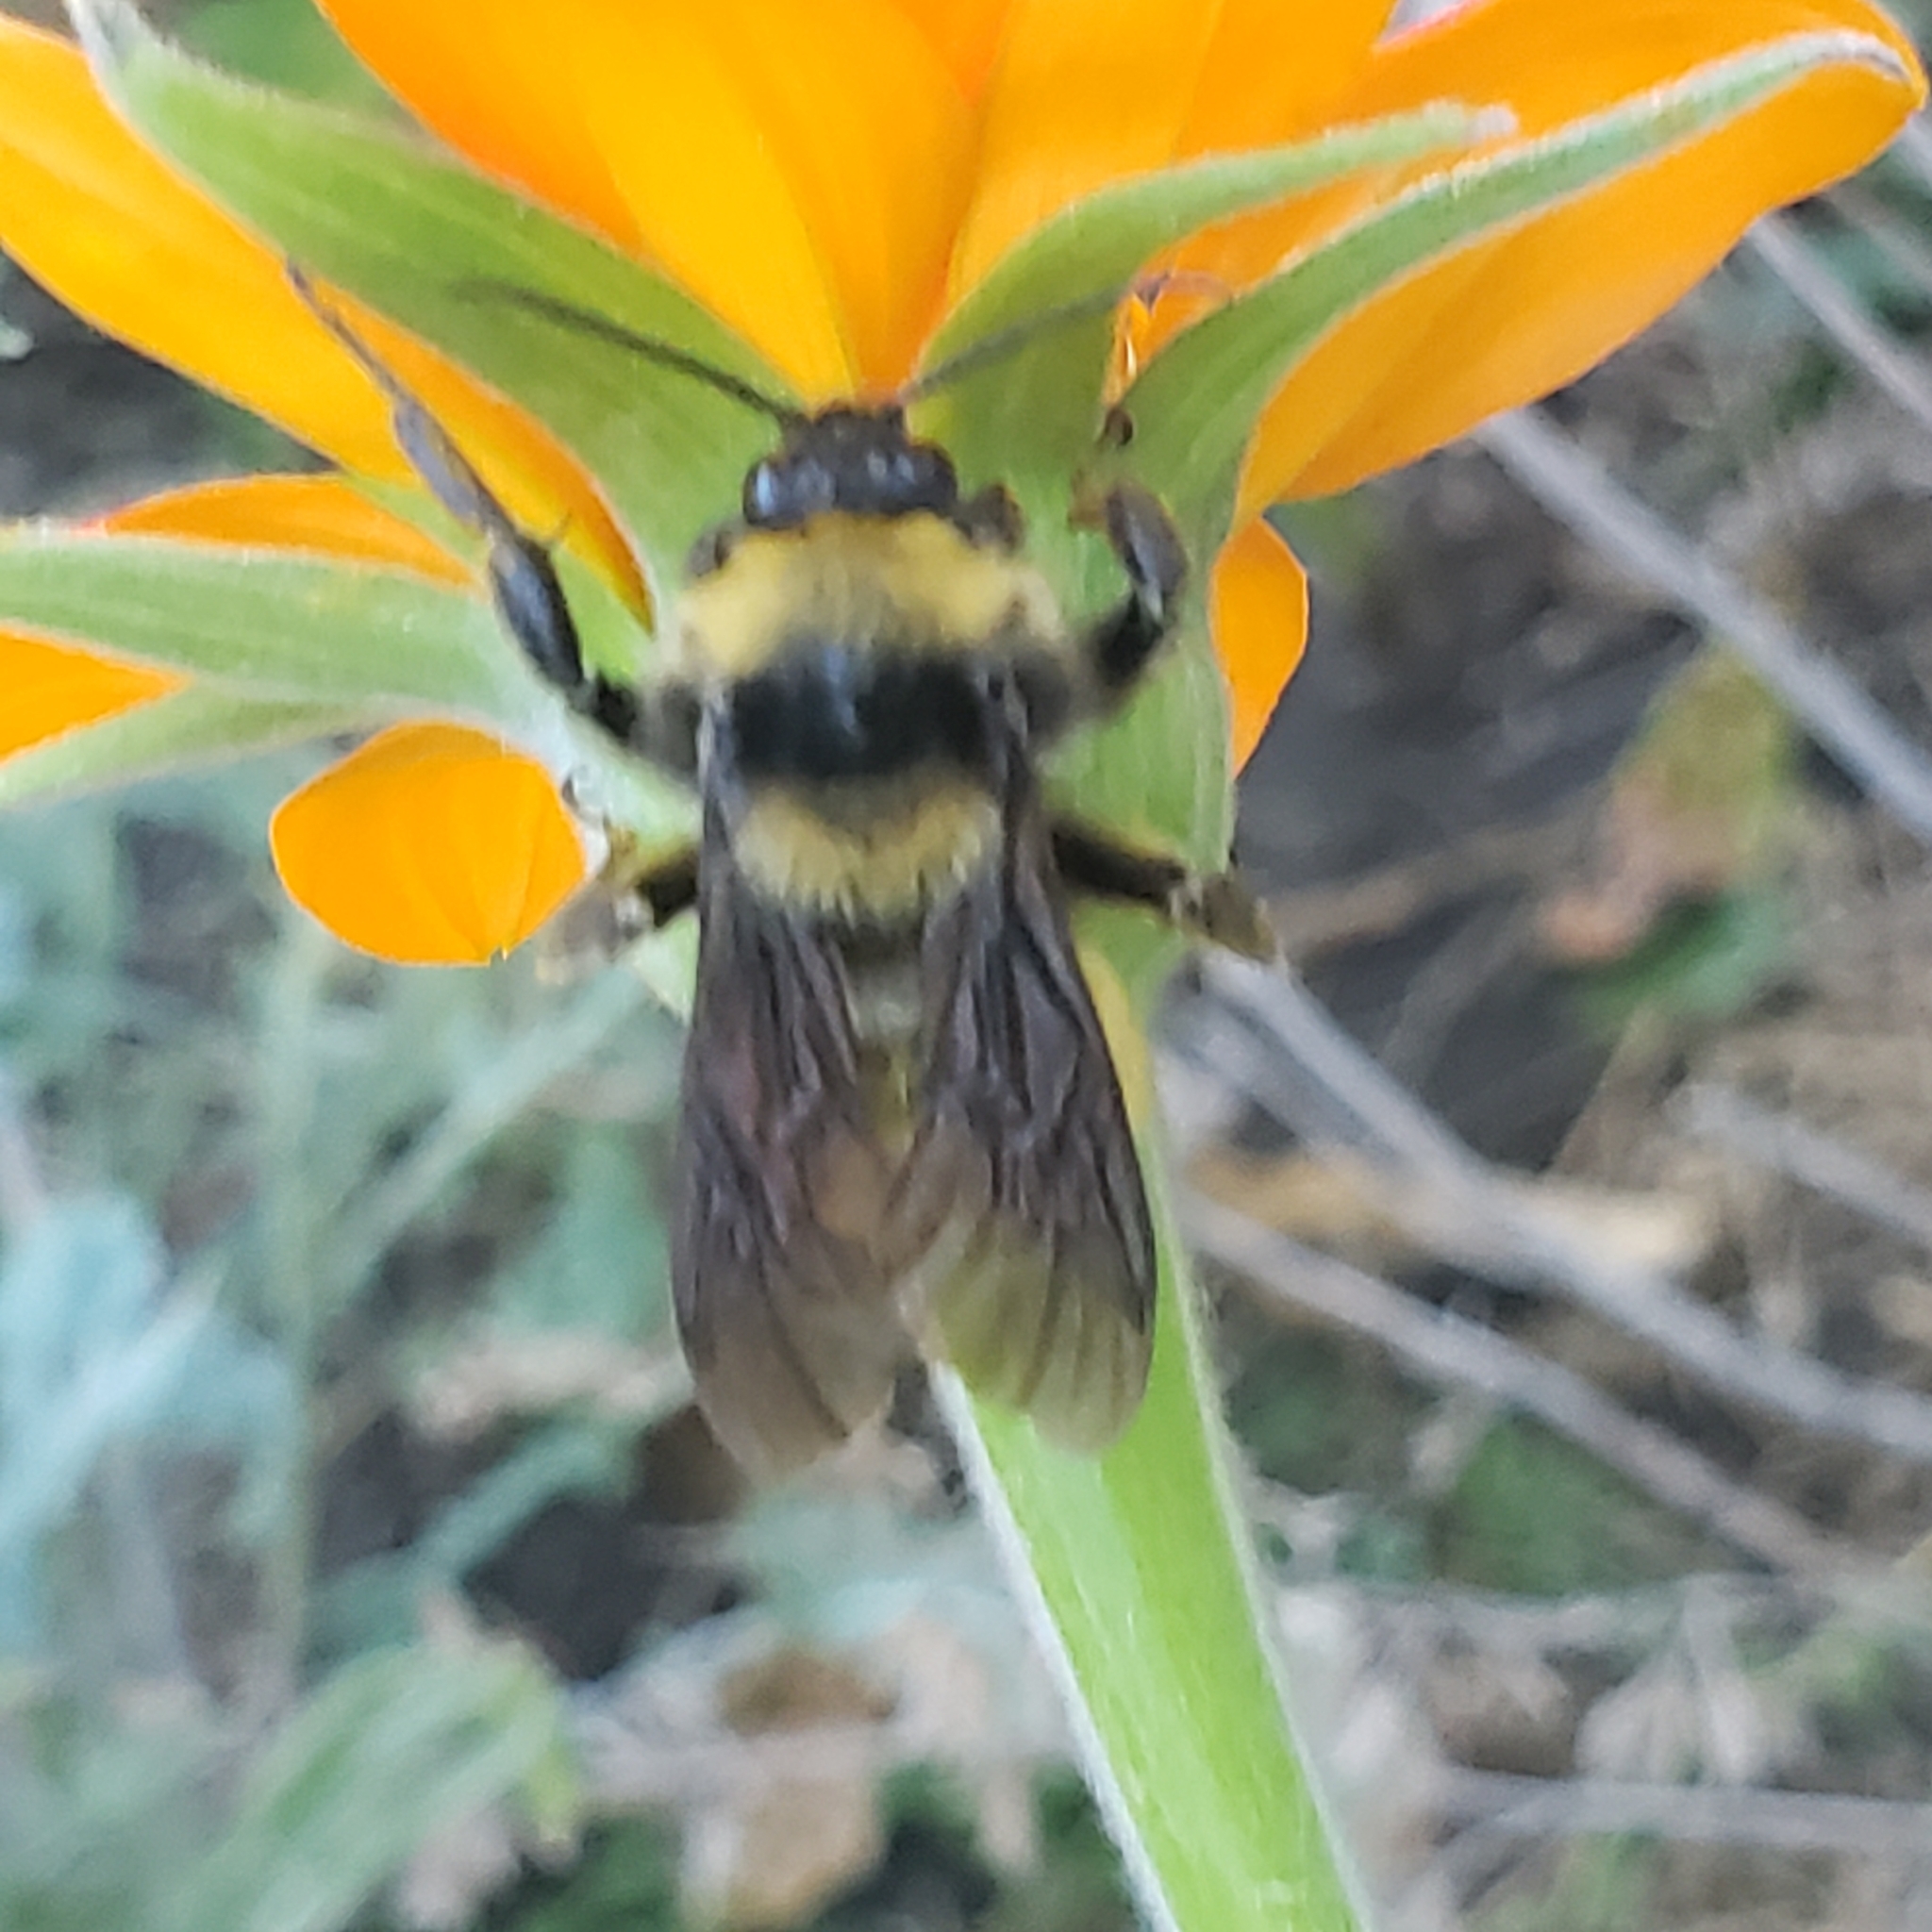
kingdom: Animalia
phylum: Arthropoda
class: Insecta
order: Hymenoptera
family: Apidae
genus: Bombus
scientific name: Bombus pensylvanicus
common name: Bumble bee
